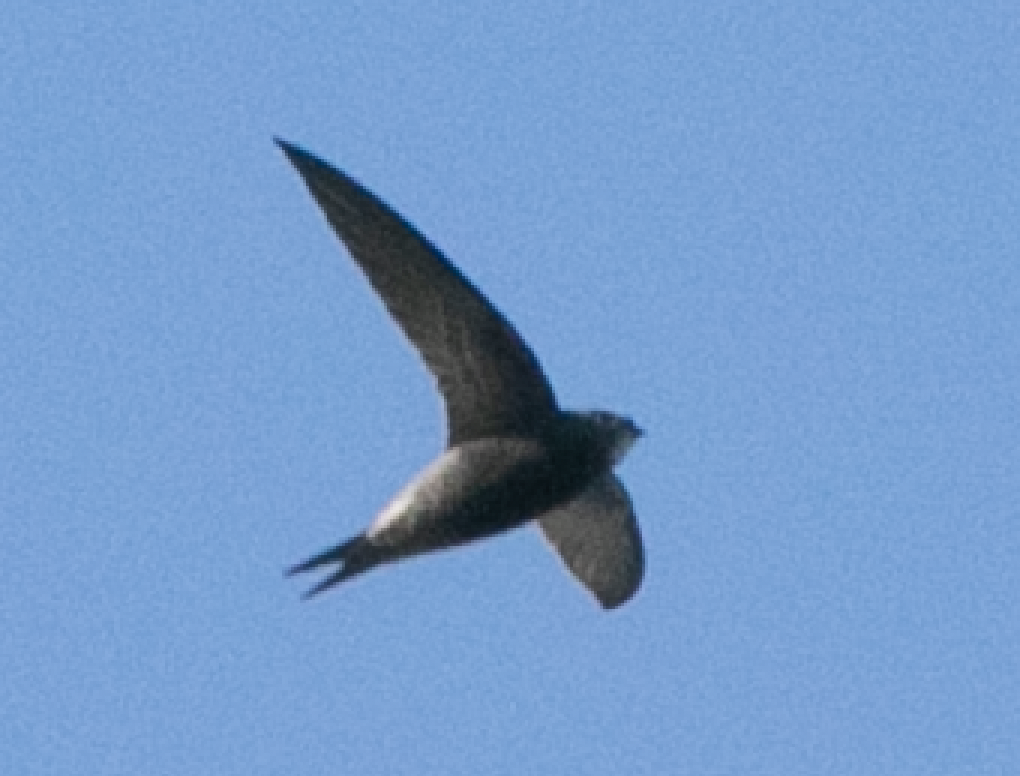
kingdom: Animalia
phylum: Chordata
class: Aves
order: Apodiformes
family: Apodidae
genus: Apus
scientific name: Apus apus
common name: Common swift
